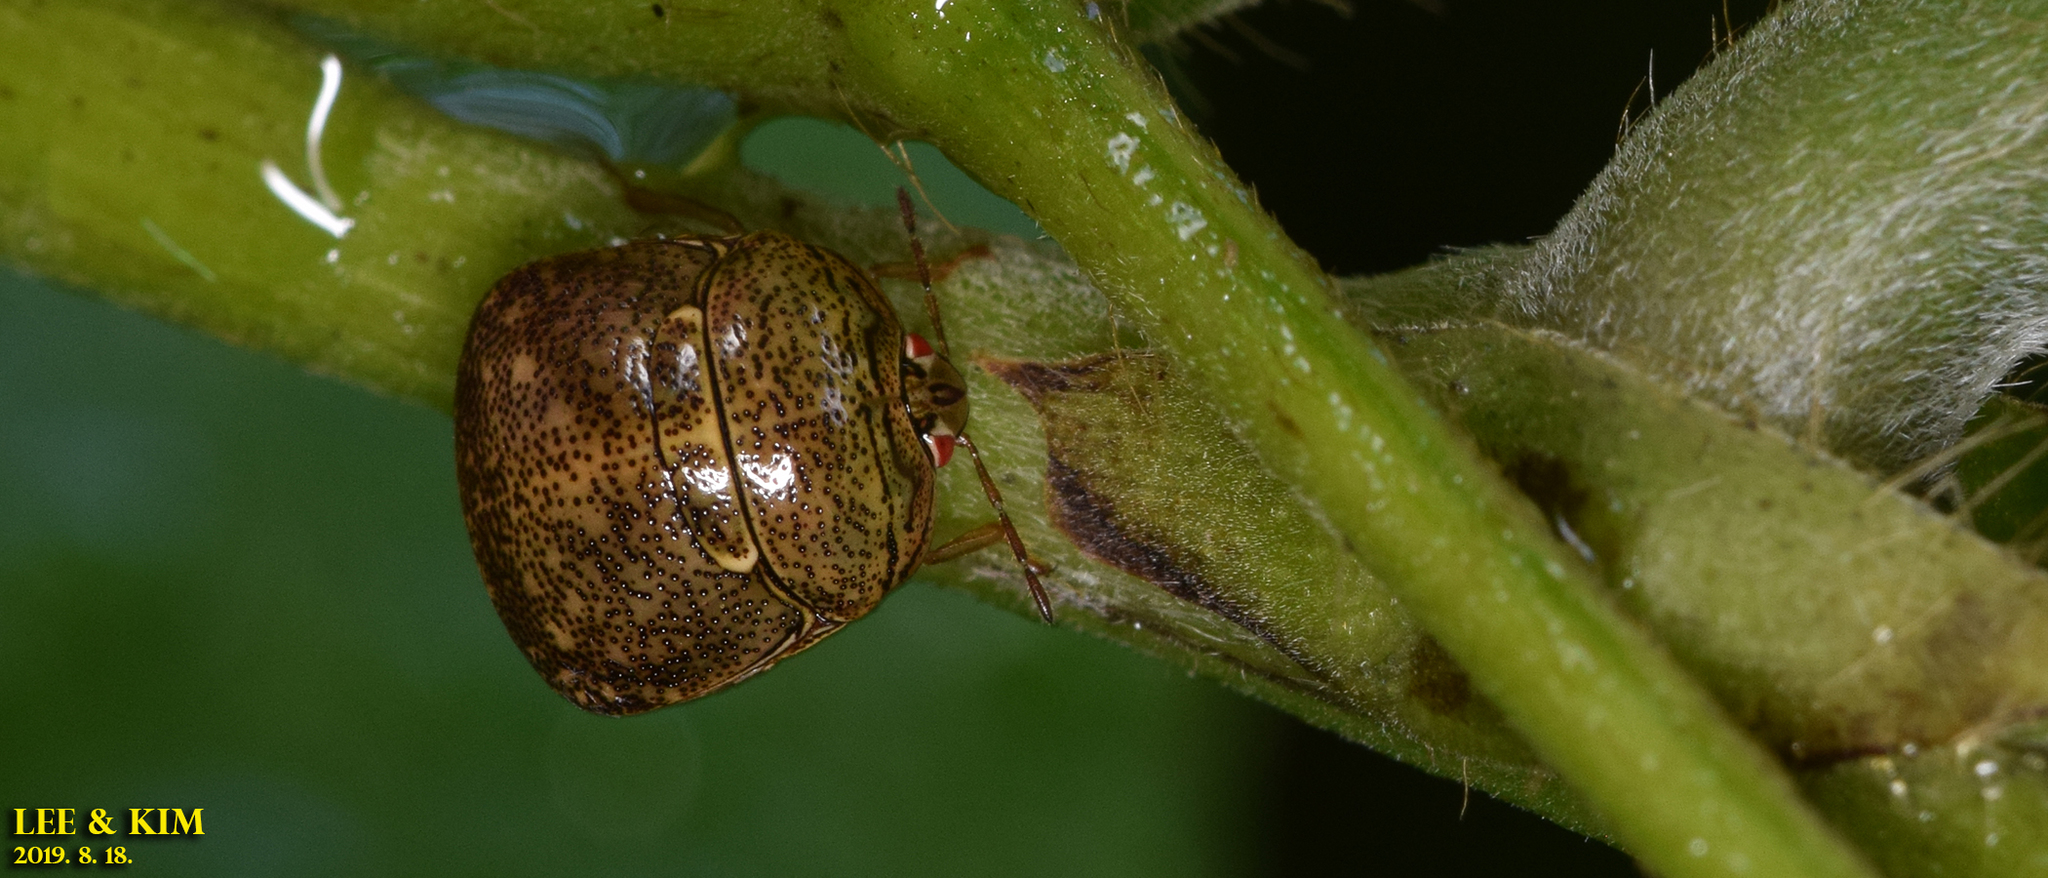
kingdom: Animalia
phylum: Arthropoda
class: Insecta
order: Hemiptera
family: Plataspidae
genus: Megacopta
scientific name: Megacopta cribraria
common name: Bean plataspid
